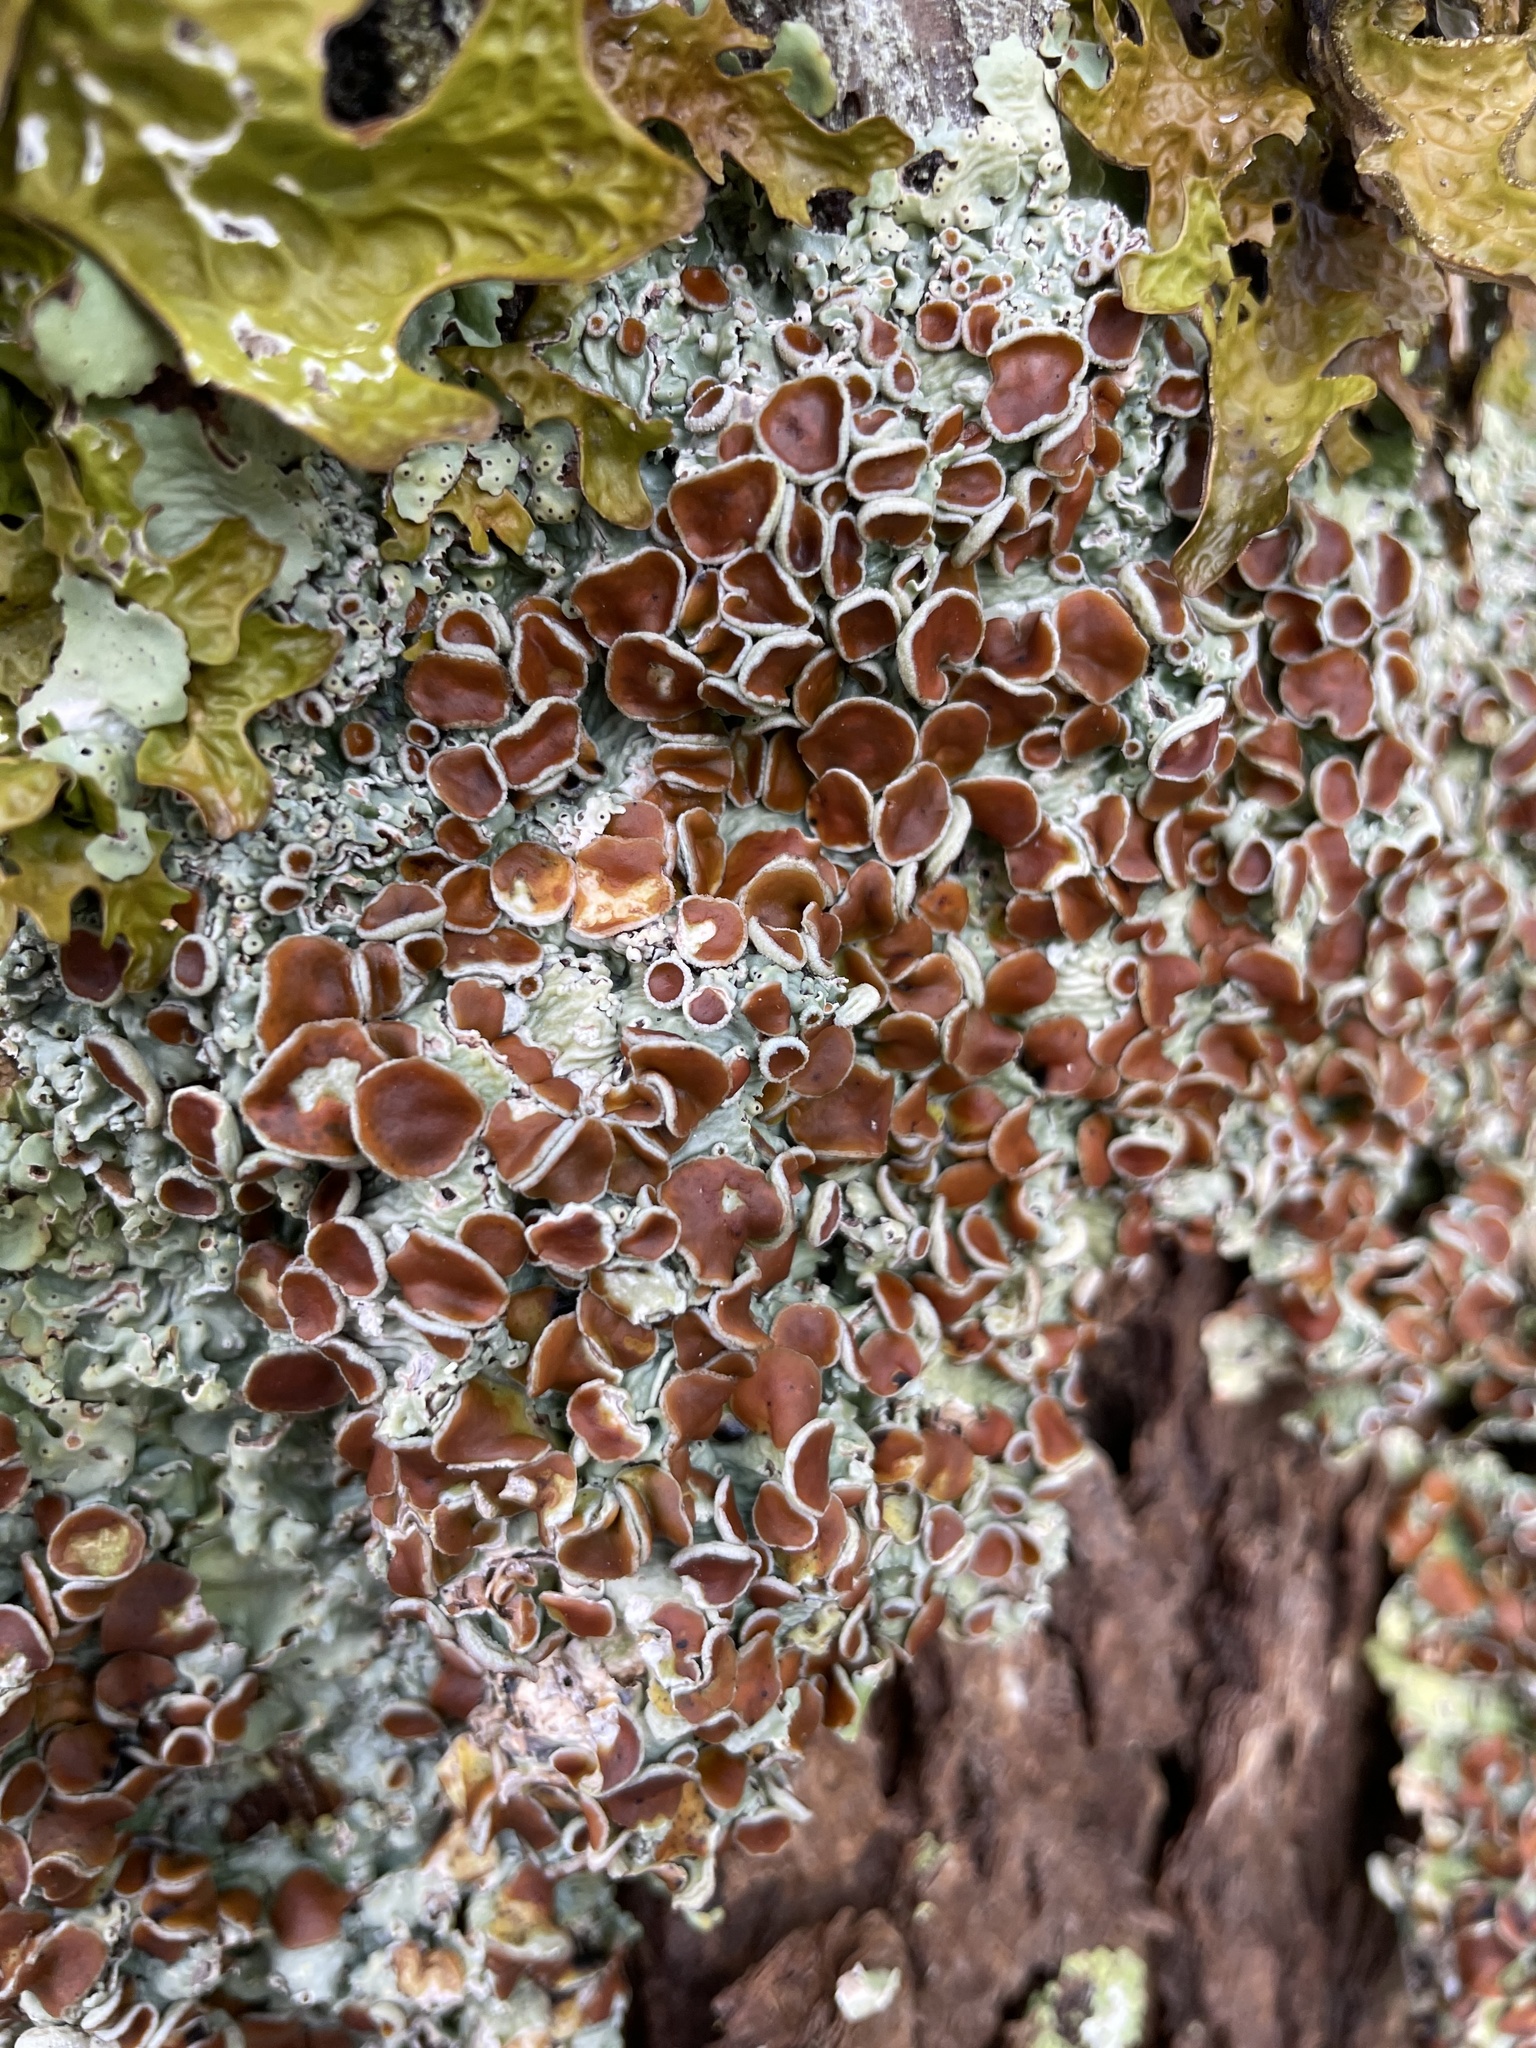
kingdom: Fungi
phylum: Ascomycota
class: Lecanoromycetes
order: Peltigerales
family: Lobariaceae
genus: Ricasolia
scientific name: Ricasolia quercizans
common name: Smooth lungwort
